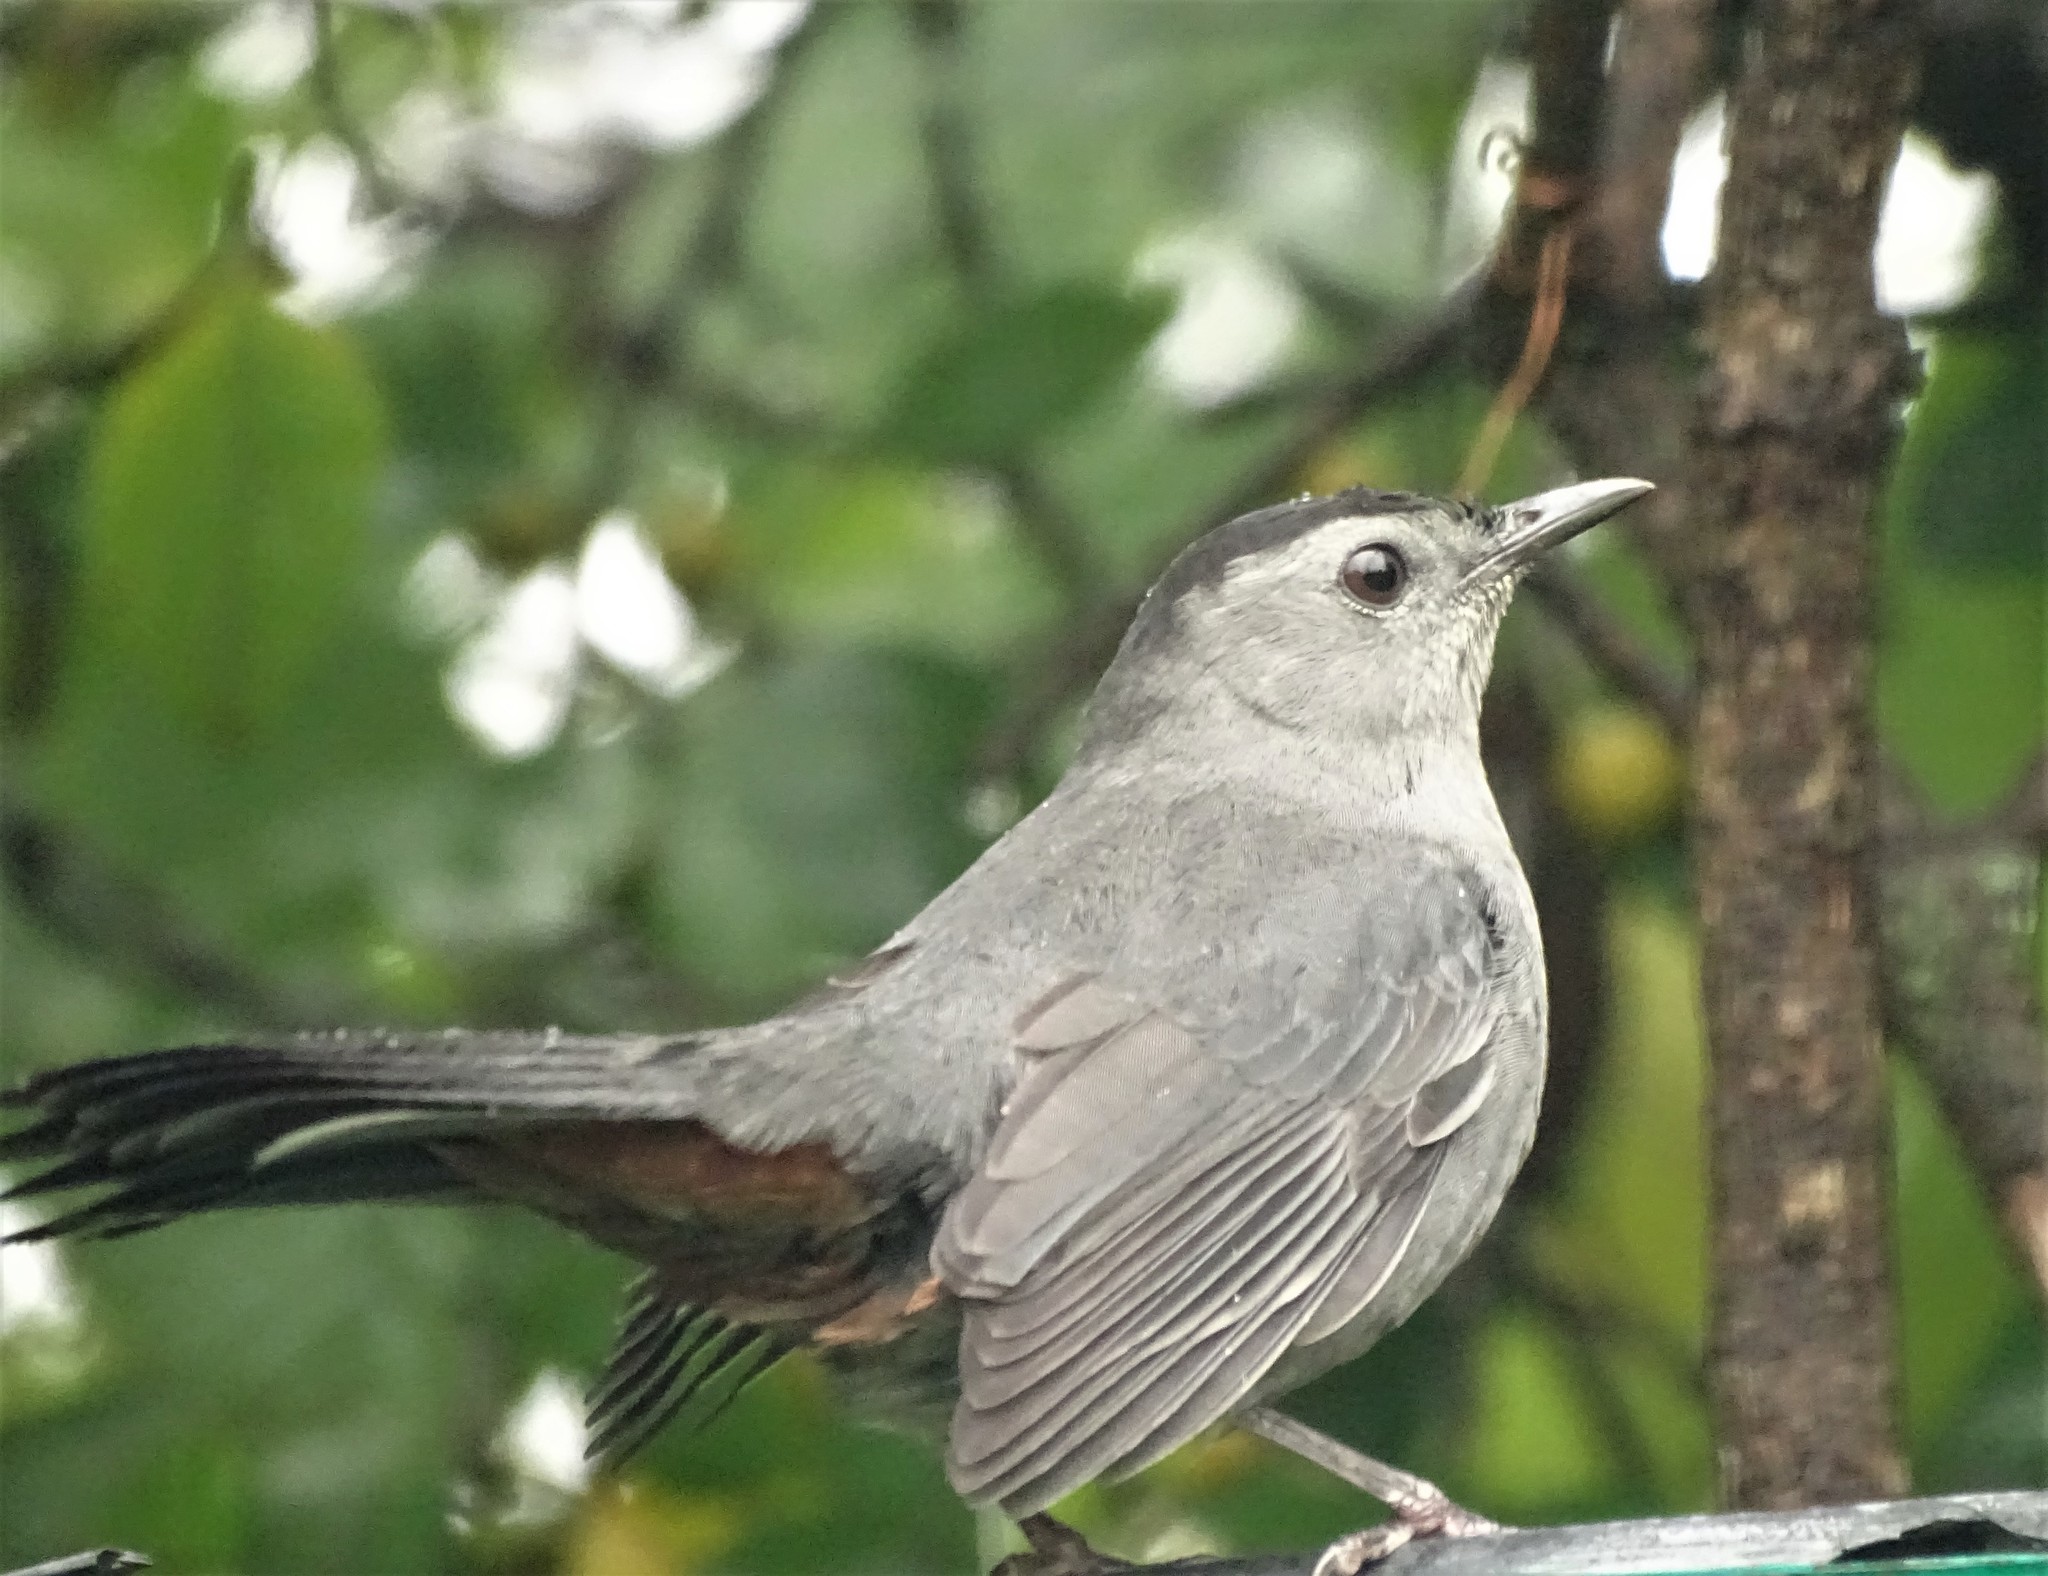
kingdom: Animalia
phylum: Chordata
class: Aves
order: Passeriformes
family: Mimidae
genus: Dumetella
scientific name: Dumetella carolinensis
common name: Gray catbird
